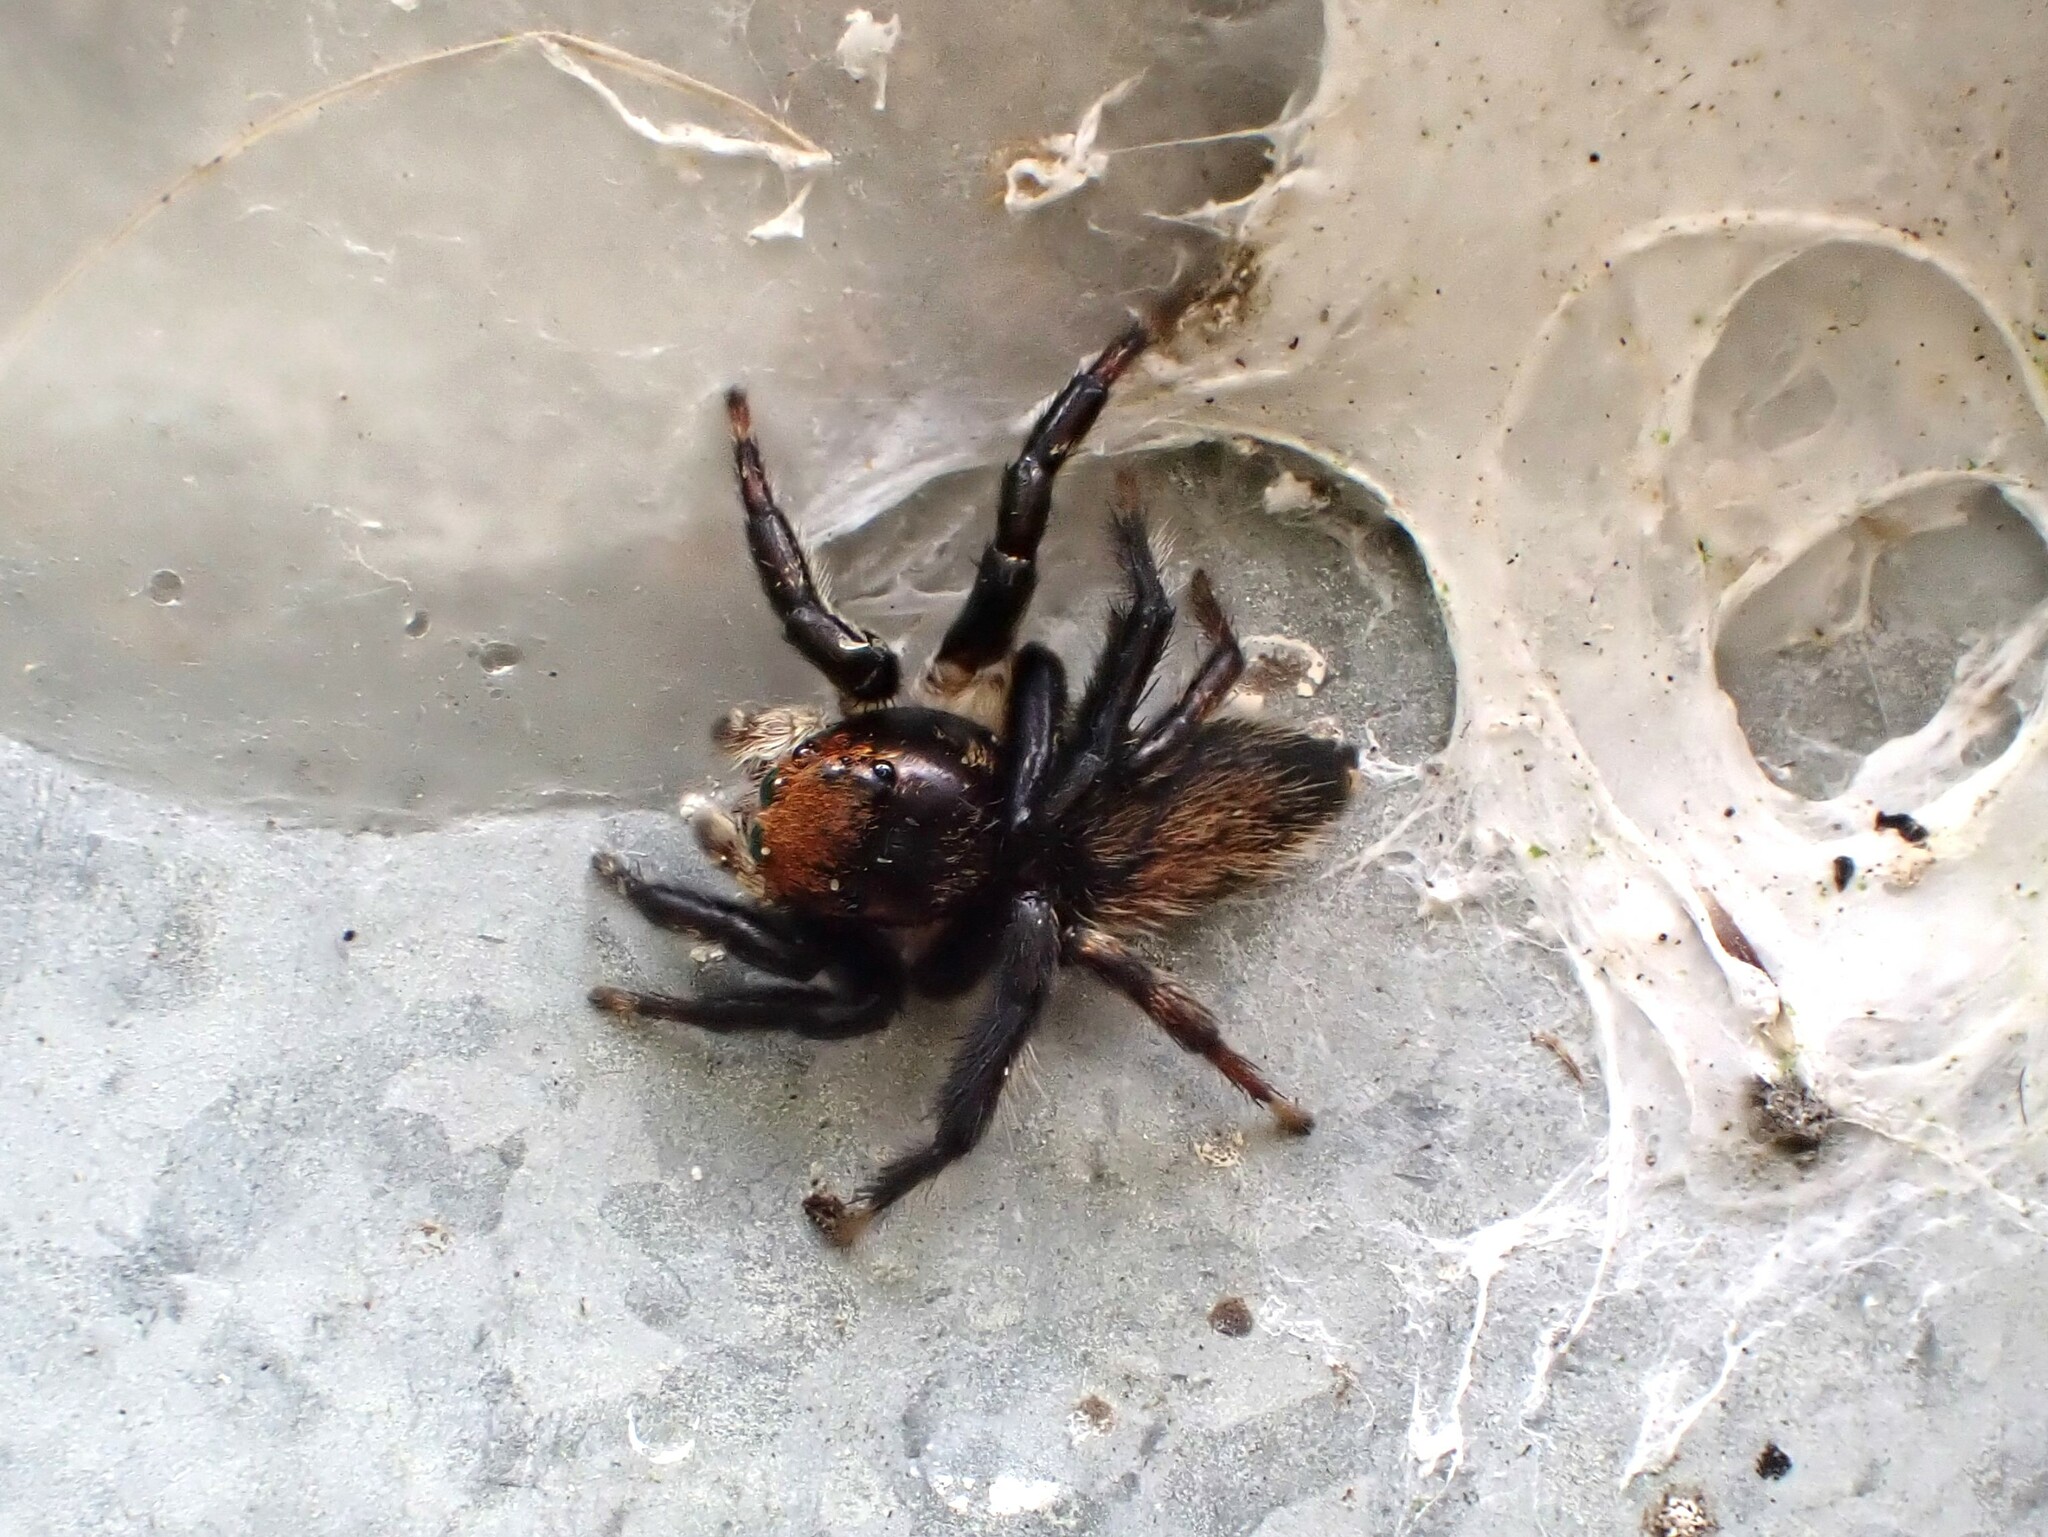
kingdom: Animalia
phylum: Arthropoda
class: Arachnida
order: Araneae
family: Salticidae
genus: Maratus
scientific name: Maratus griseus
